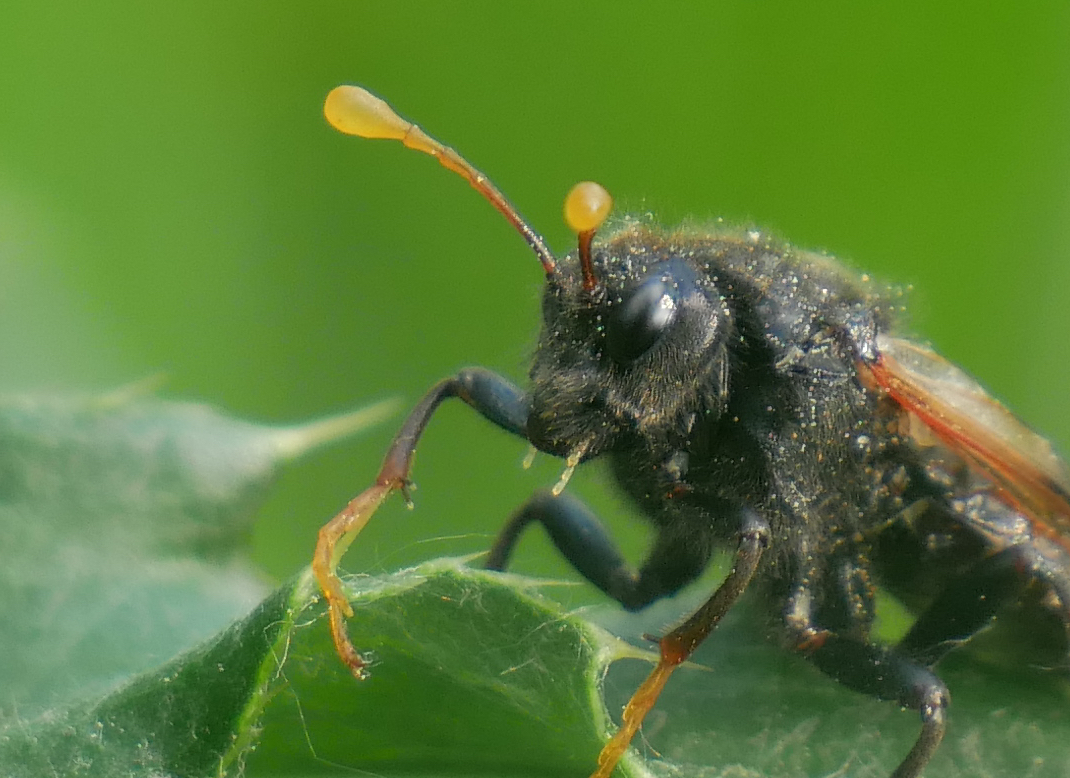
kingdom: Animalia
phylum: Arthropoda
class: Insecta
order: Hymenoptera
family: Cimbicidae
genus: Cimbex
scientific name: Cimbex femoratus
